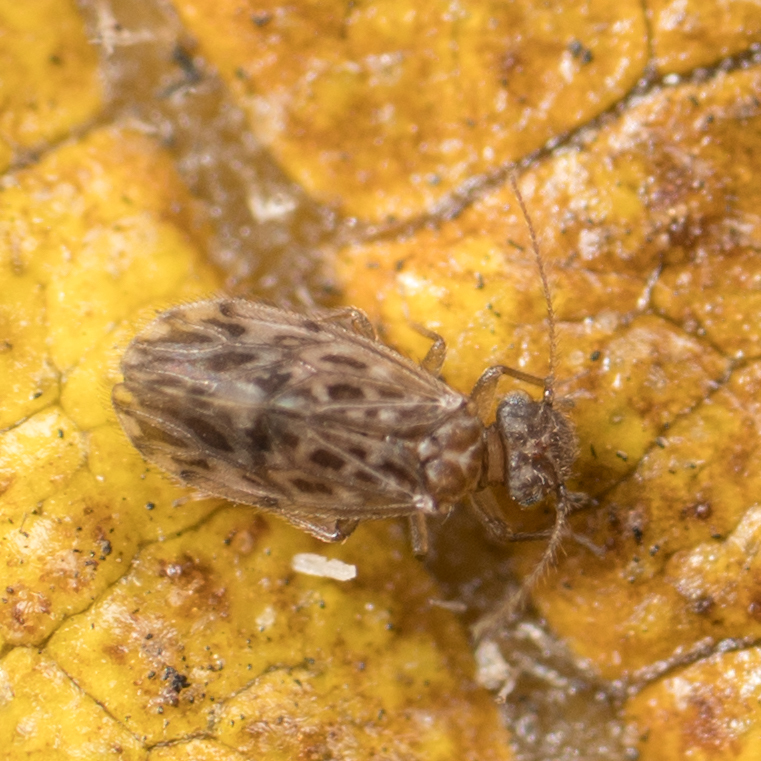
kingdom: Animalia
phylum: Arthropoda
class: Insecta
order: Psocodea
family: Ectopsocidae
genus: Ectopsocus
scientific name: Ectopsocus strauchi
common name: Medium-sized bark louse
